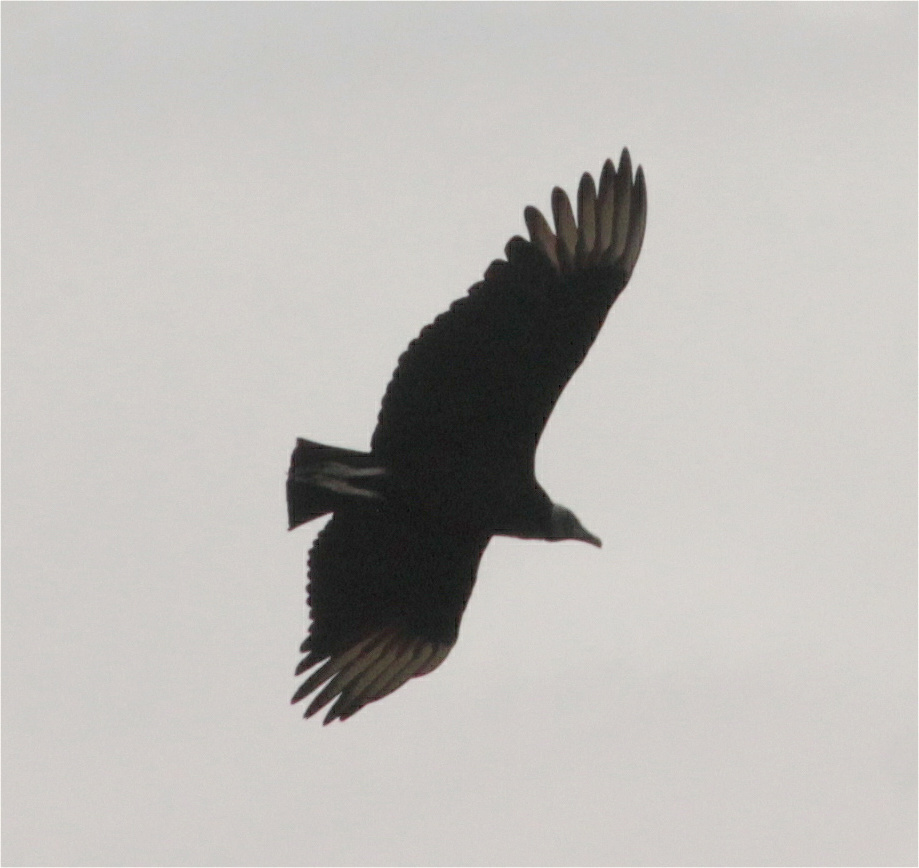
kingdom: Animalia
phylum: Chordata
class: Aves
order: Accipitriformes
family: Cathartidae
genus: Coragyps
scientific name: Coragyps atratus
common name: Black vulture
